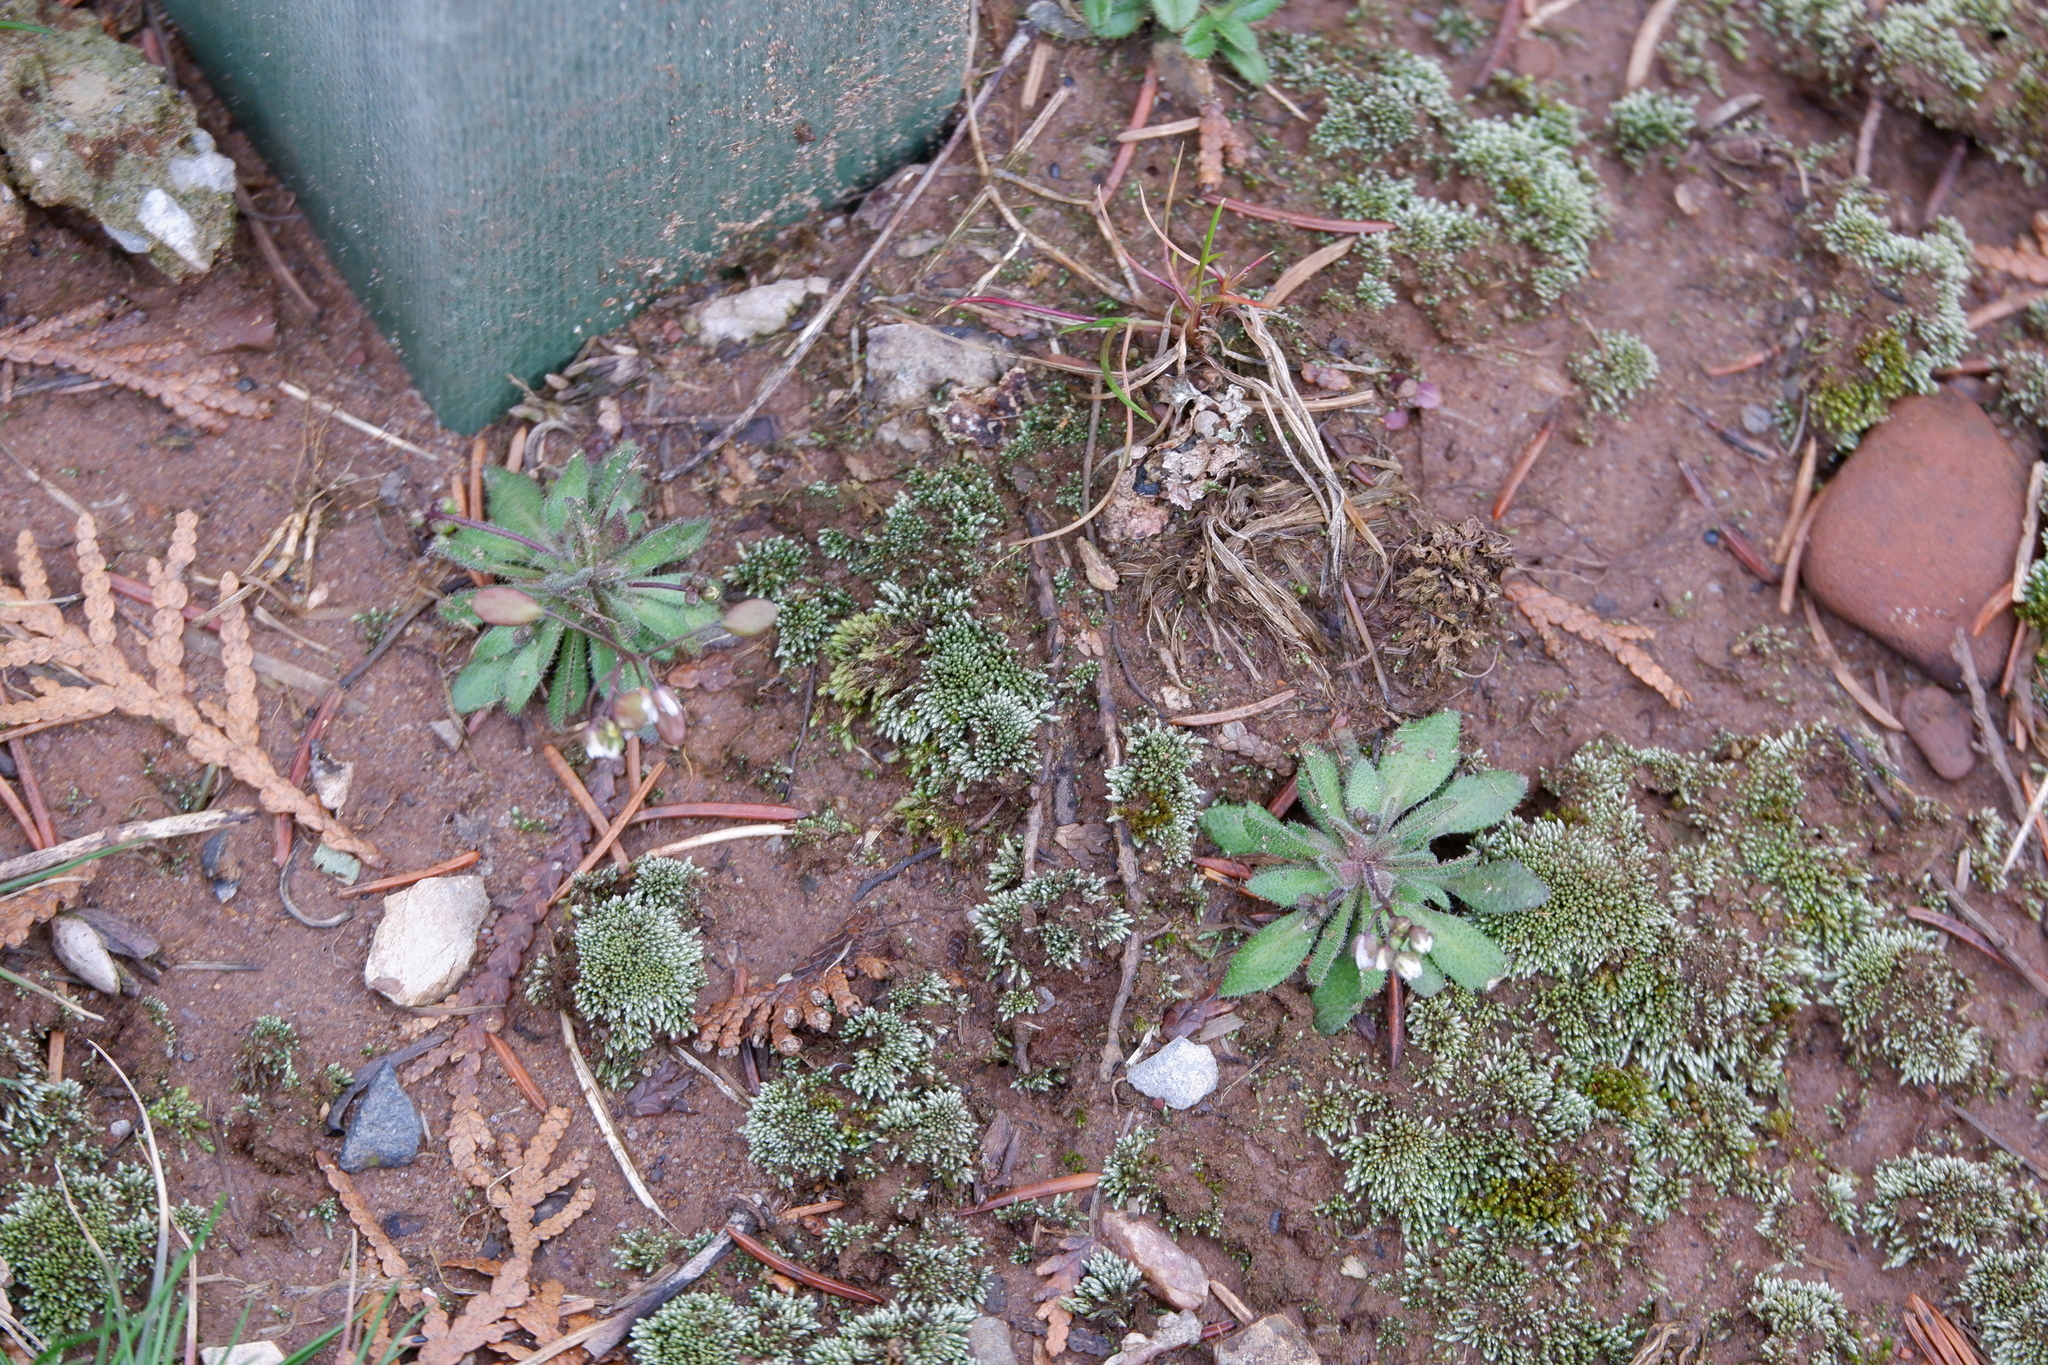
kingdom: Plantae
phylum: Tracheophyta
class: Magnoliopsida
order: Brassicales
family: Brassicaceae
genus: Draba
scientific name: Draba verna
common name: Spring draba
